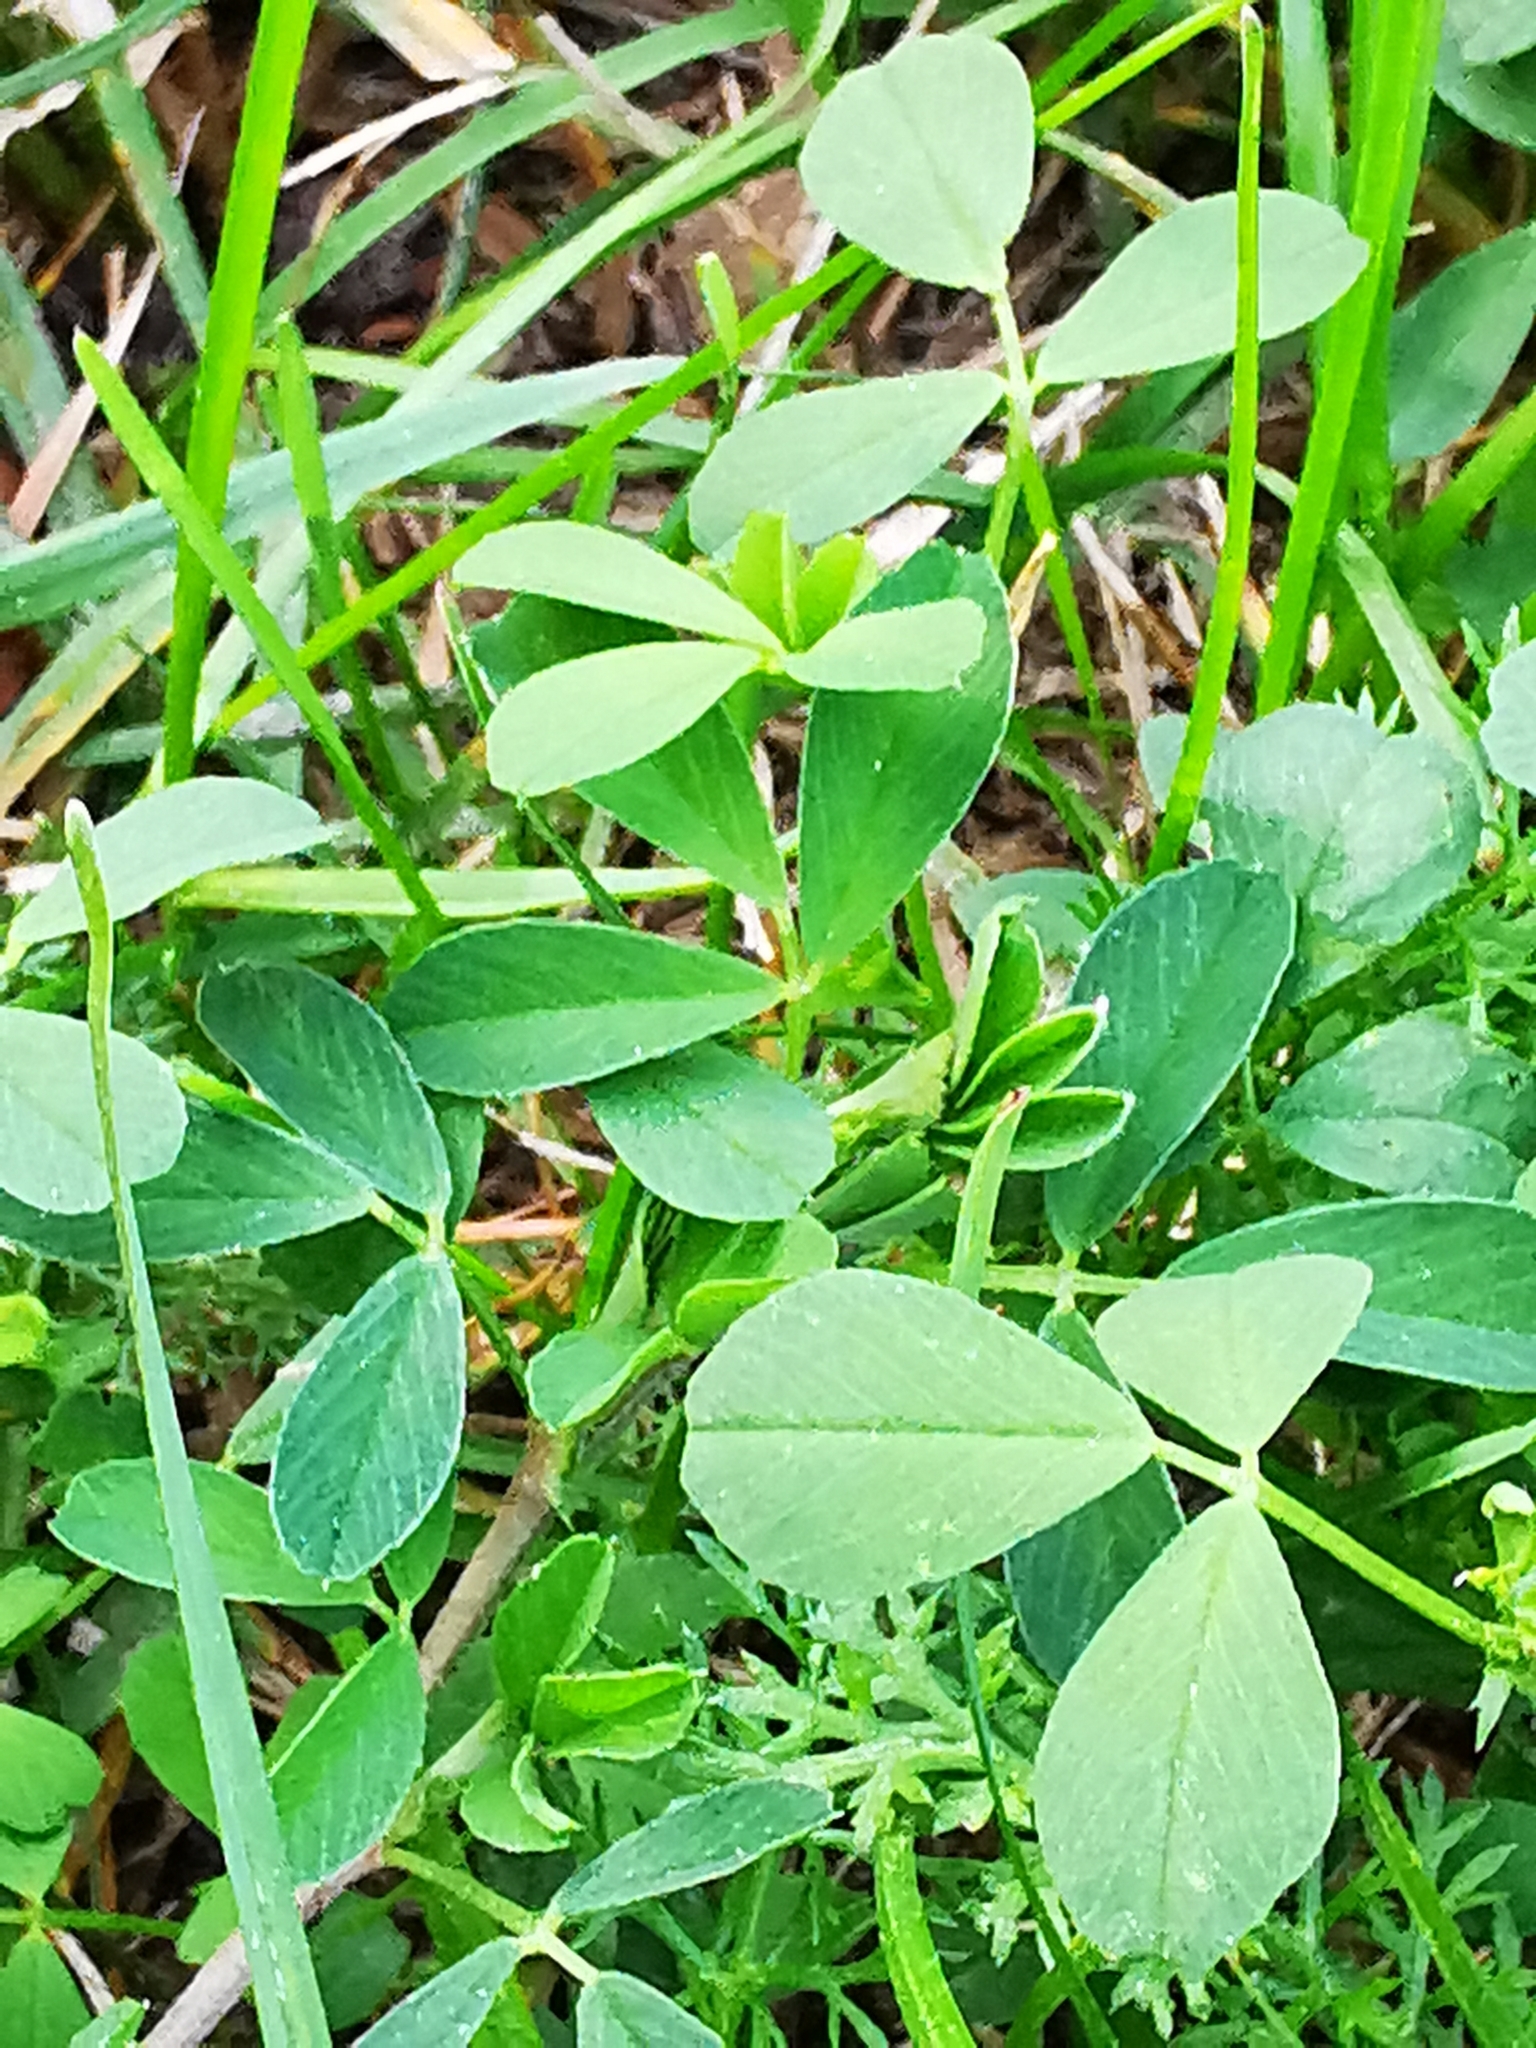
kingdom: Plantae
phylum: Tracheophyta
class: Magnoliopsida
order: Fabales
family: Fabaceae
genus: Medicago
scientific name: Medicago falcata
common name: Sickle medick
